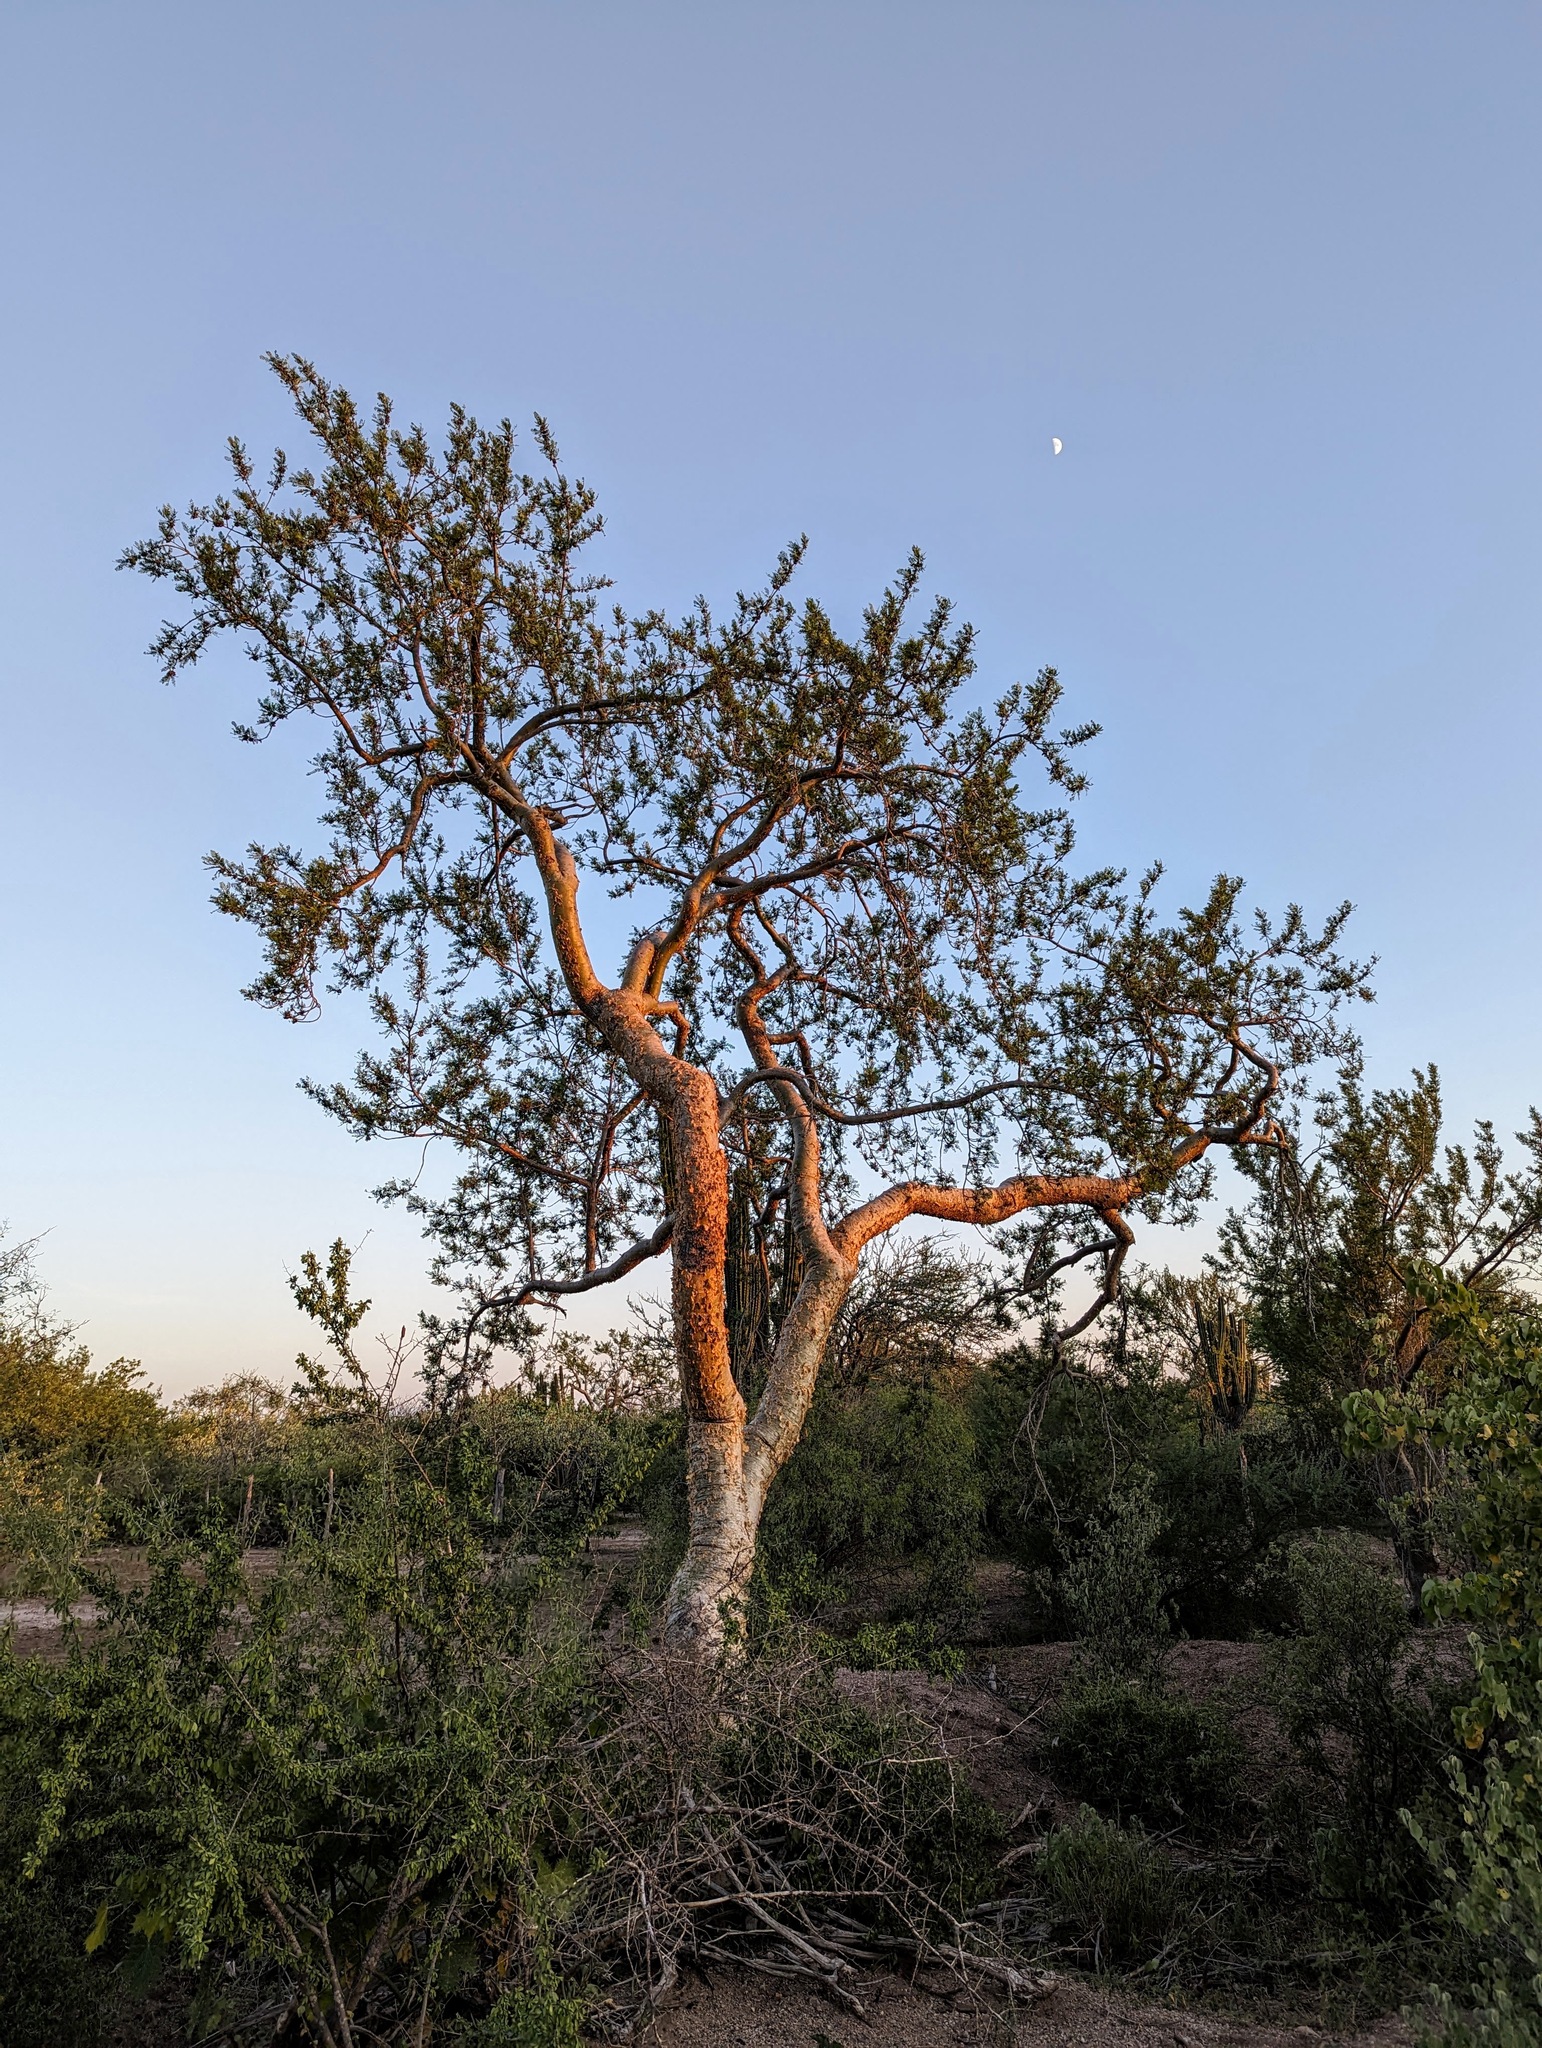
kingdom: Plantae
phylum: Tracheophyta
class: Magnoliopsida
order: Sapindales
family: Burseraceae
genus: Bursera
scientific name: Bursera microphylla
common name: Elephant tree
